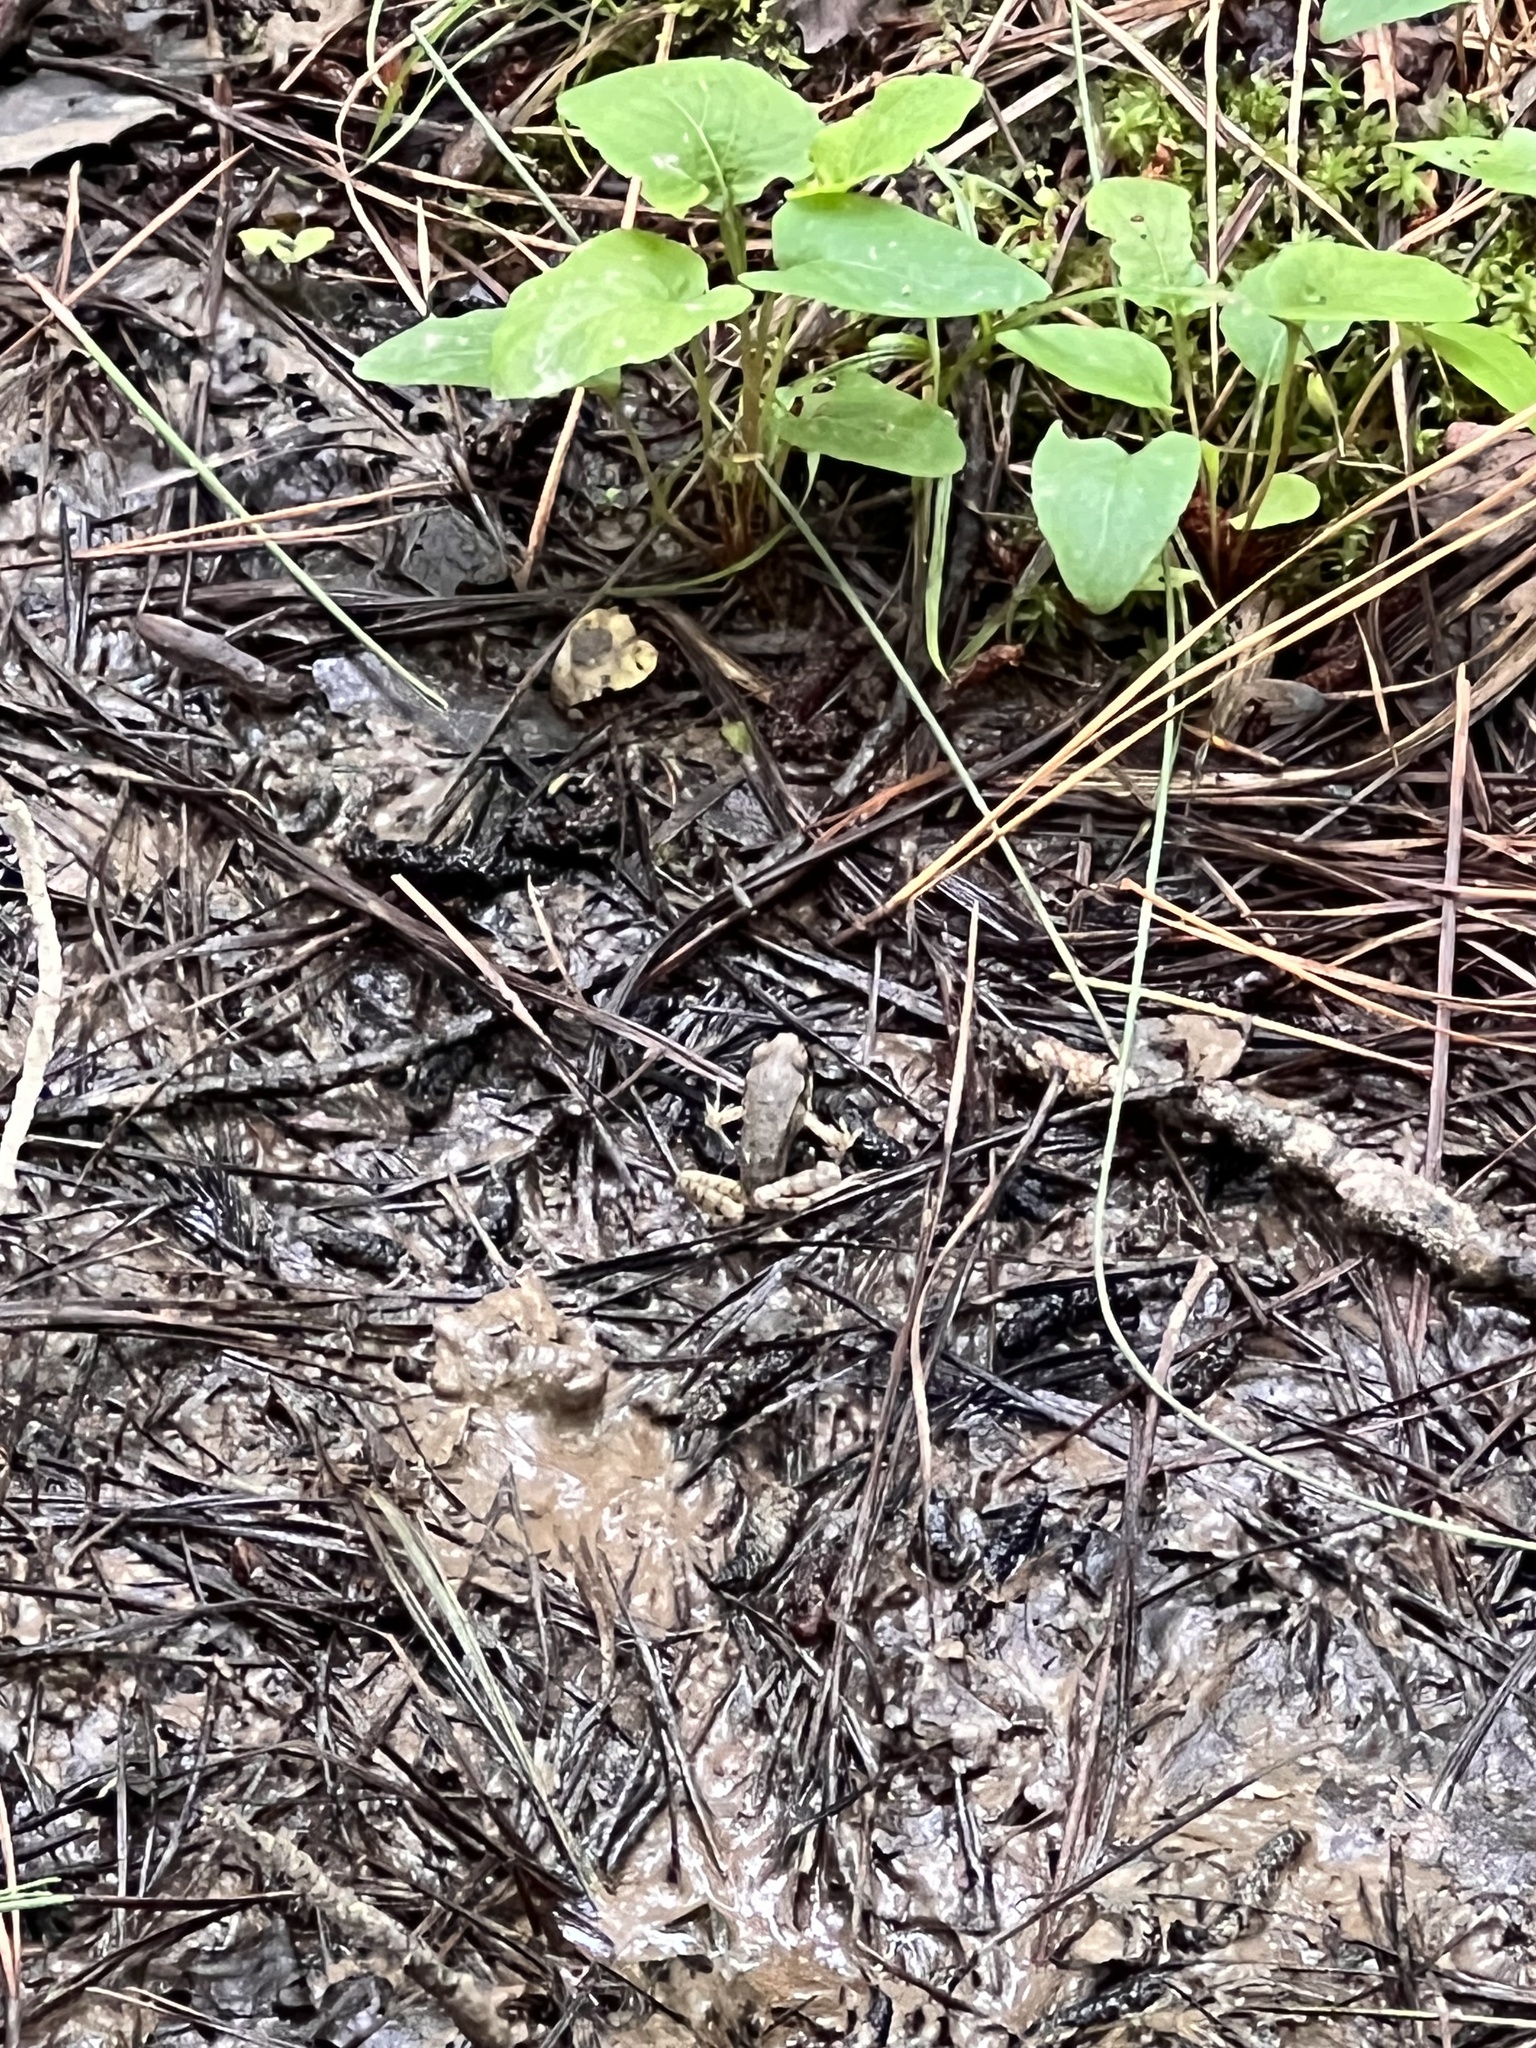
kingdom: Animalia
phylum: Chordata
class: Amphibia
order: Anura
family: Ranidae
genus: Lithobates
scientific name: Lithobates sylvaticus
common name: Wood frog
